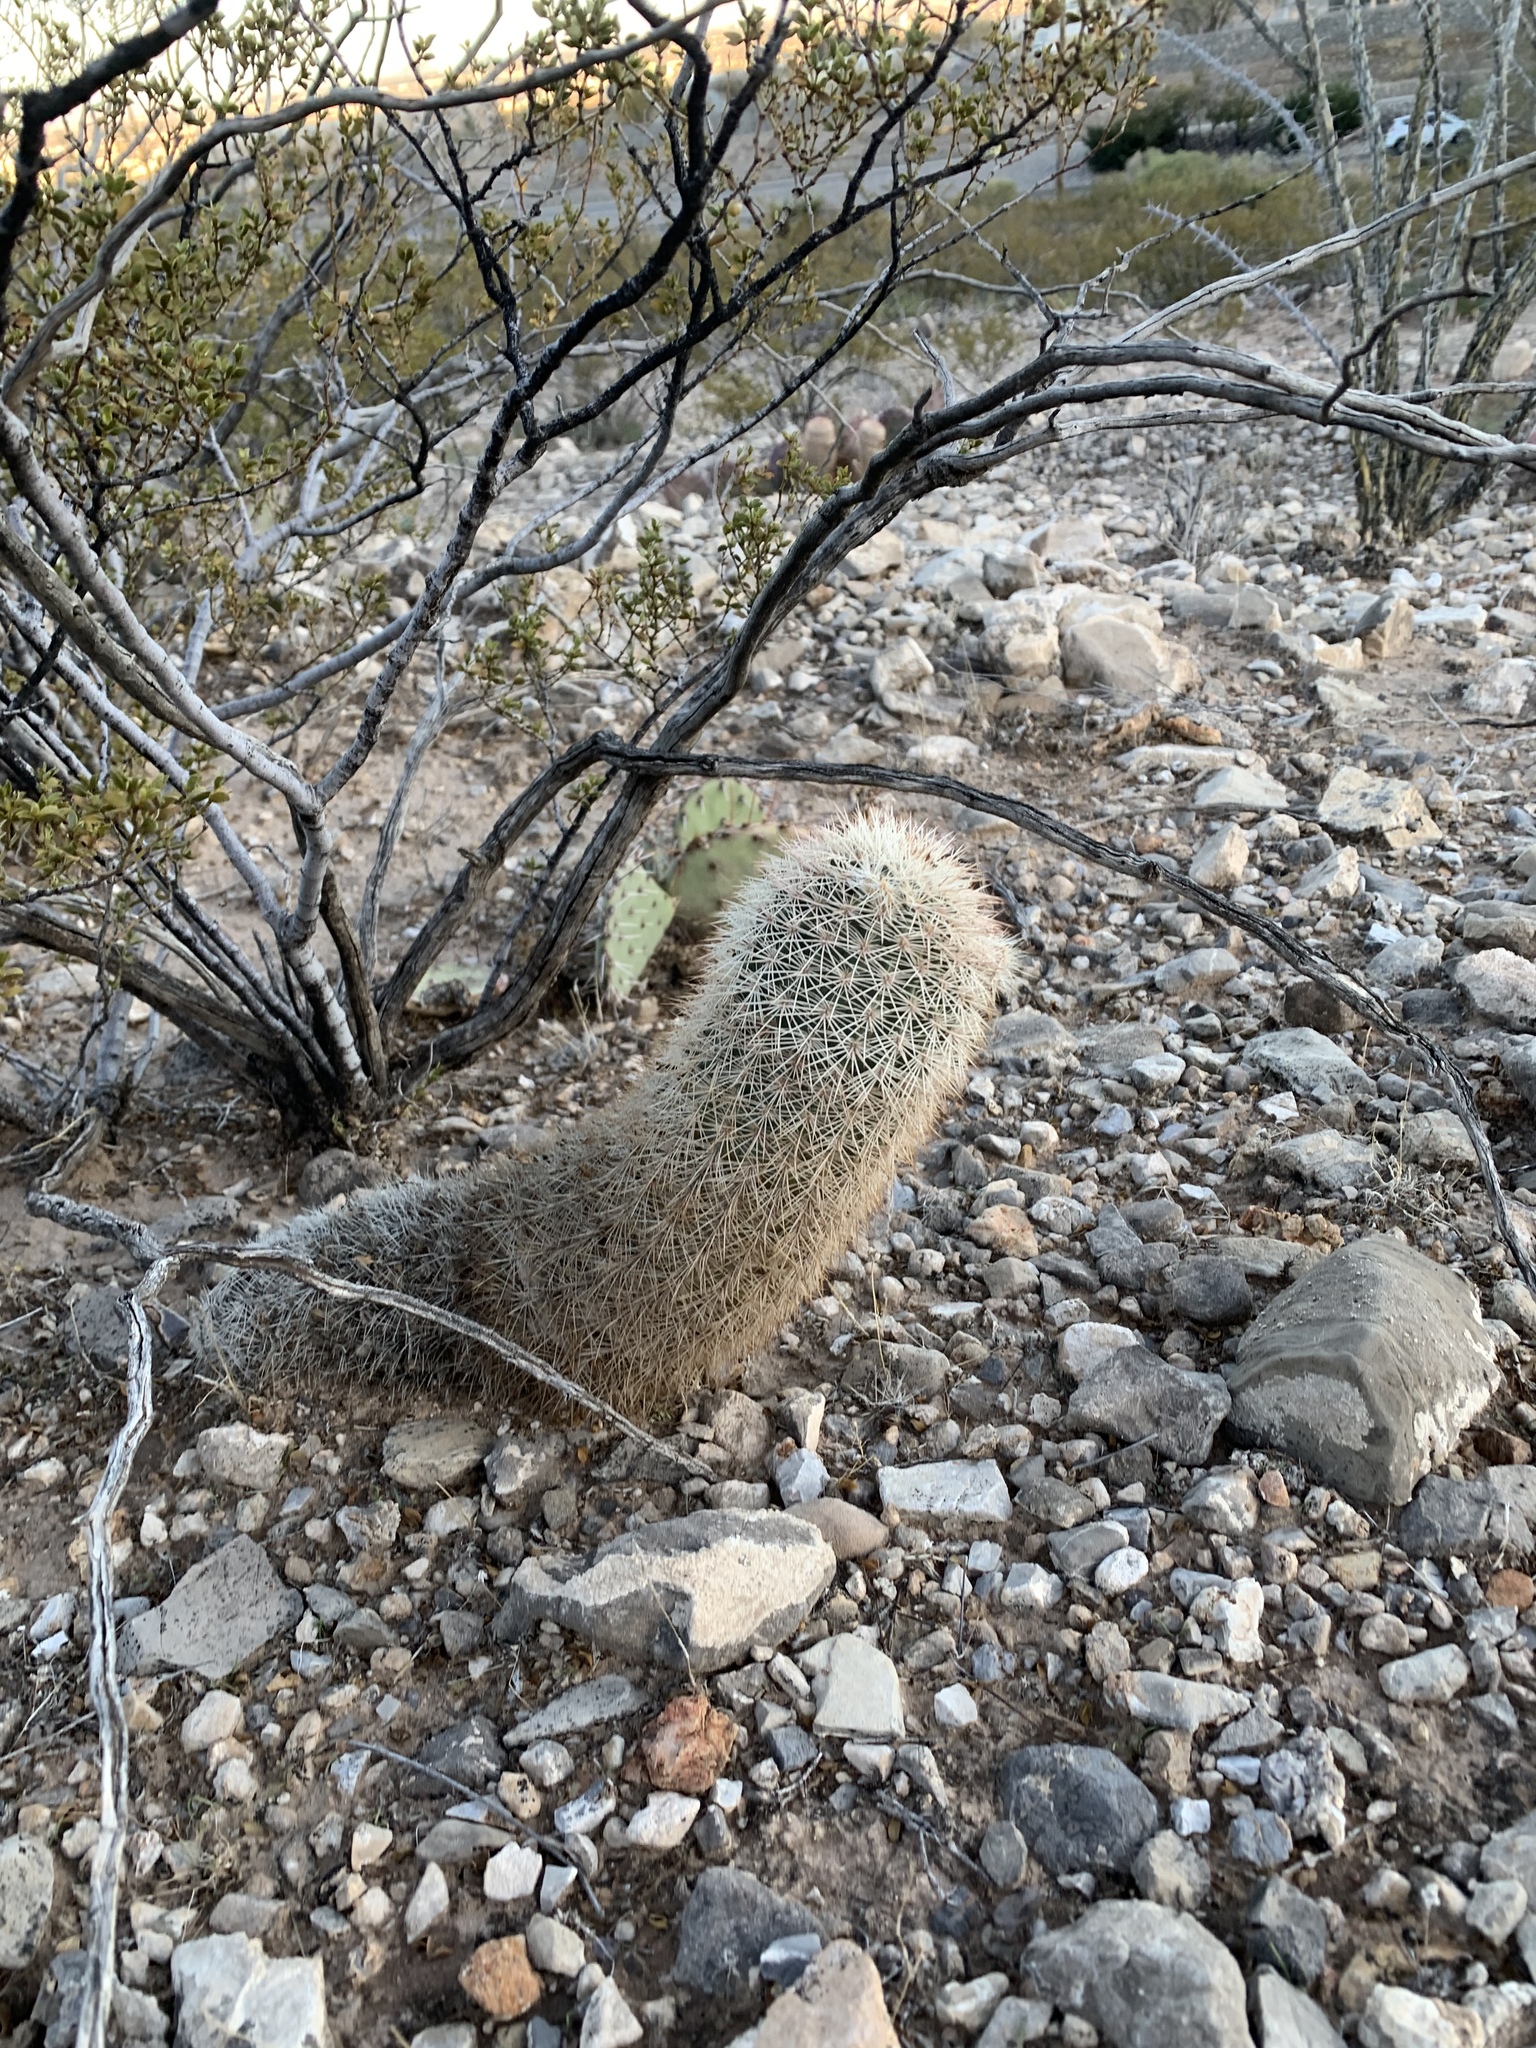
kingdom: Plantae
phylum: Tracheophyta
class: Magnoliopsida
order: Caryophyllales
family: Cactaceae
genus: Echinocereus
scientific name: Echinocereus dasyacanthus
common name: Spiny hedgehog cactus
